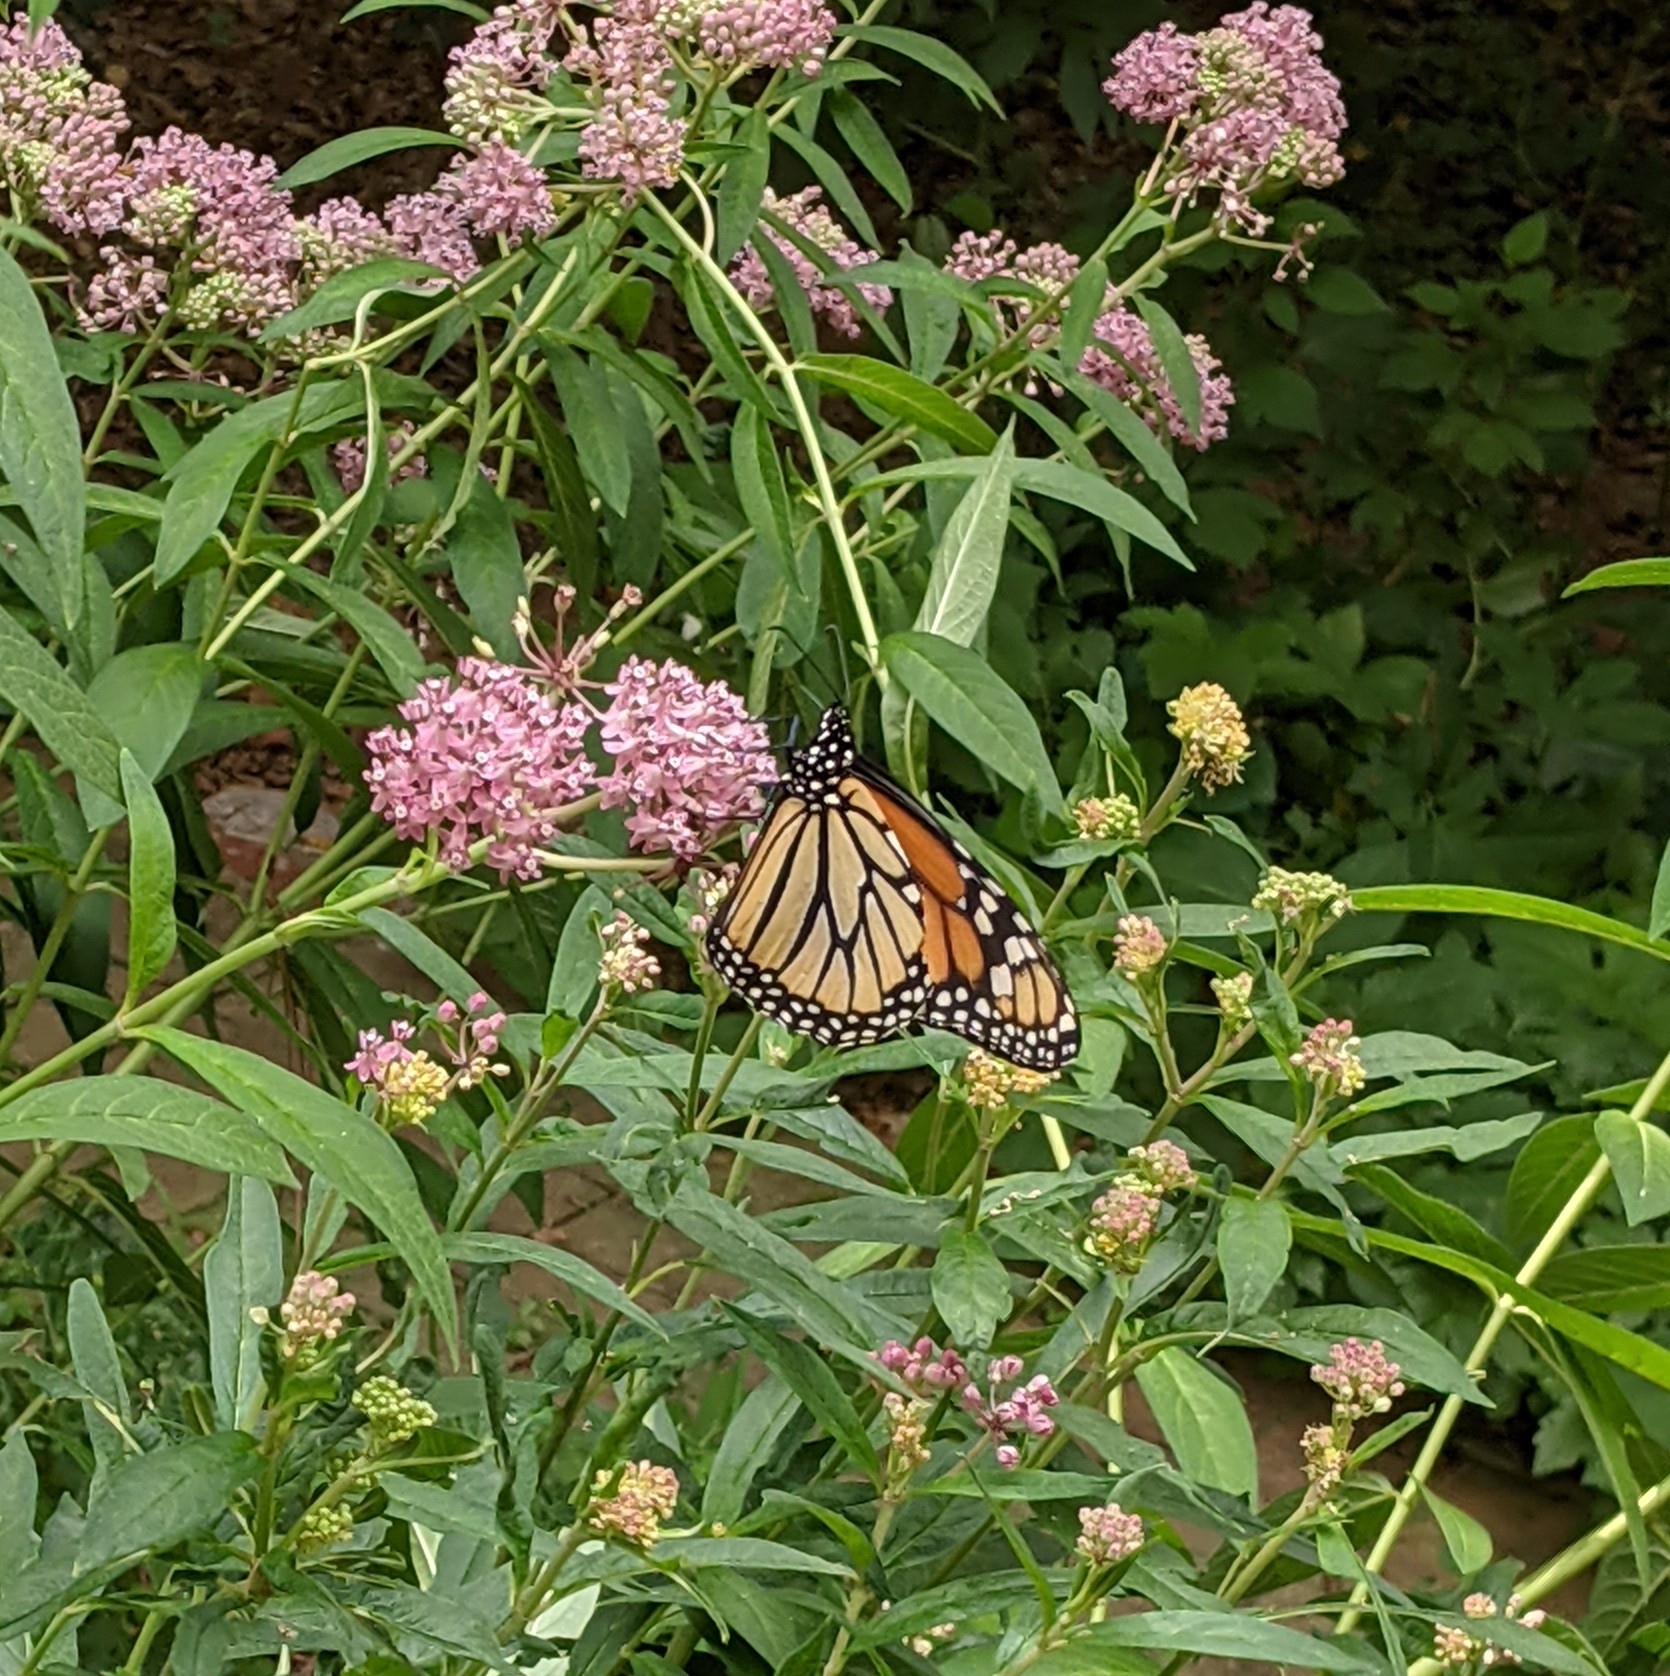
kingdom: Animalia
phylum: Arthropoda
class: Insecta
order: Lepidoptera
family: Nymphalidae
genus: Danaus
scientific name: Danaus plexippus
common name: Monarch
